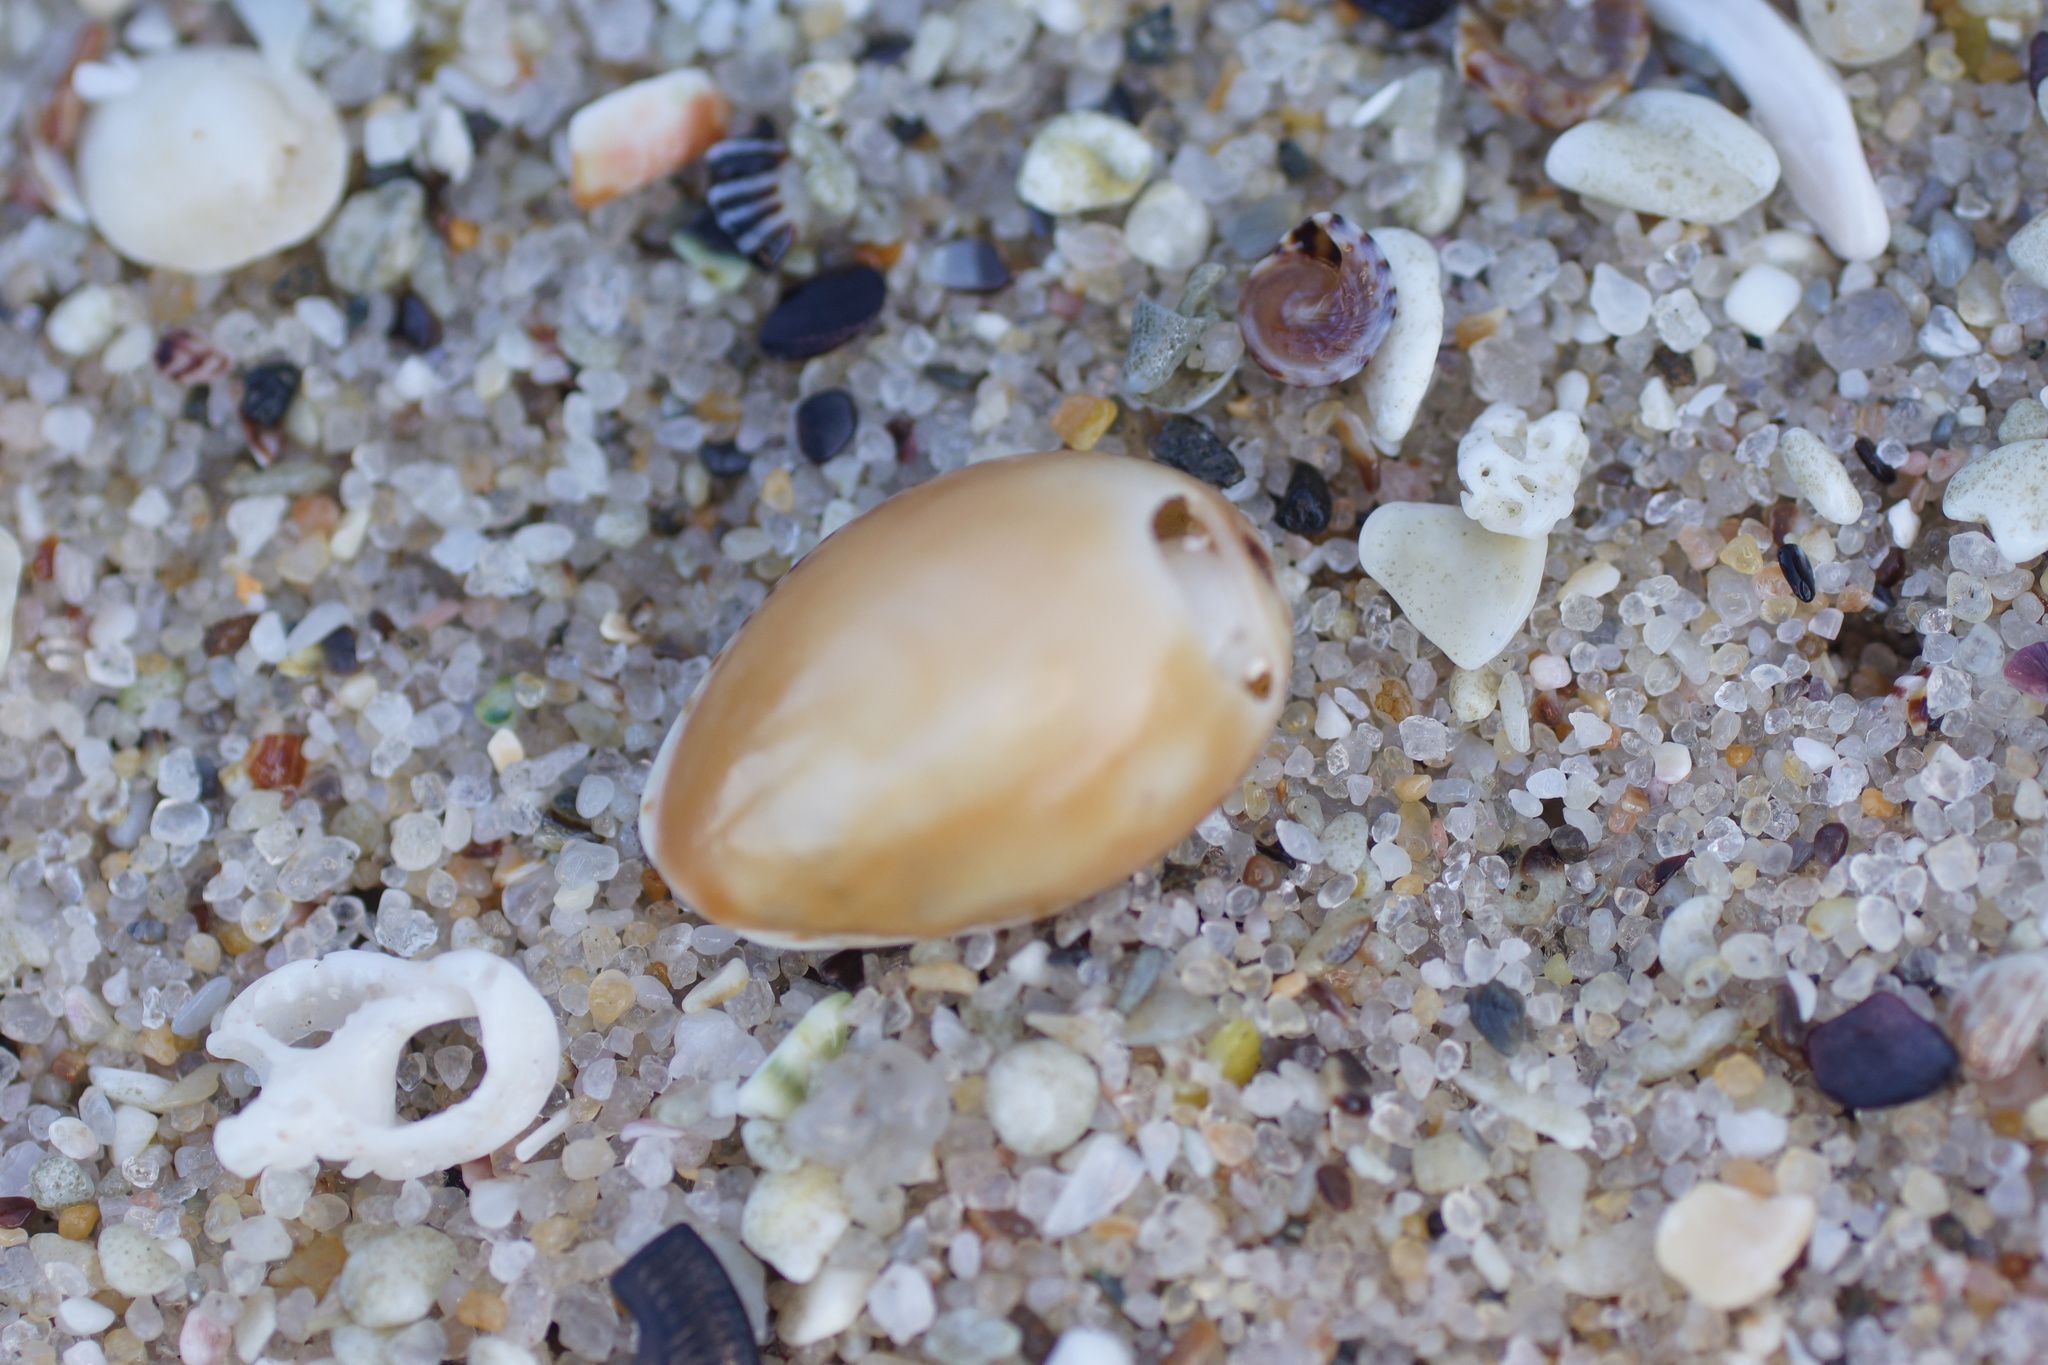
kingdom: Animalia
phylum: Mollusca
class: Gastropoda
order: Littorinimorpha
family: Cypraeidae
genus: Notocypraea
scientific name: Notocypraea angustata
